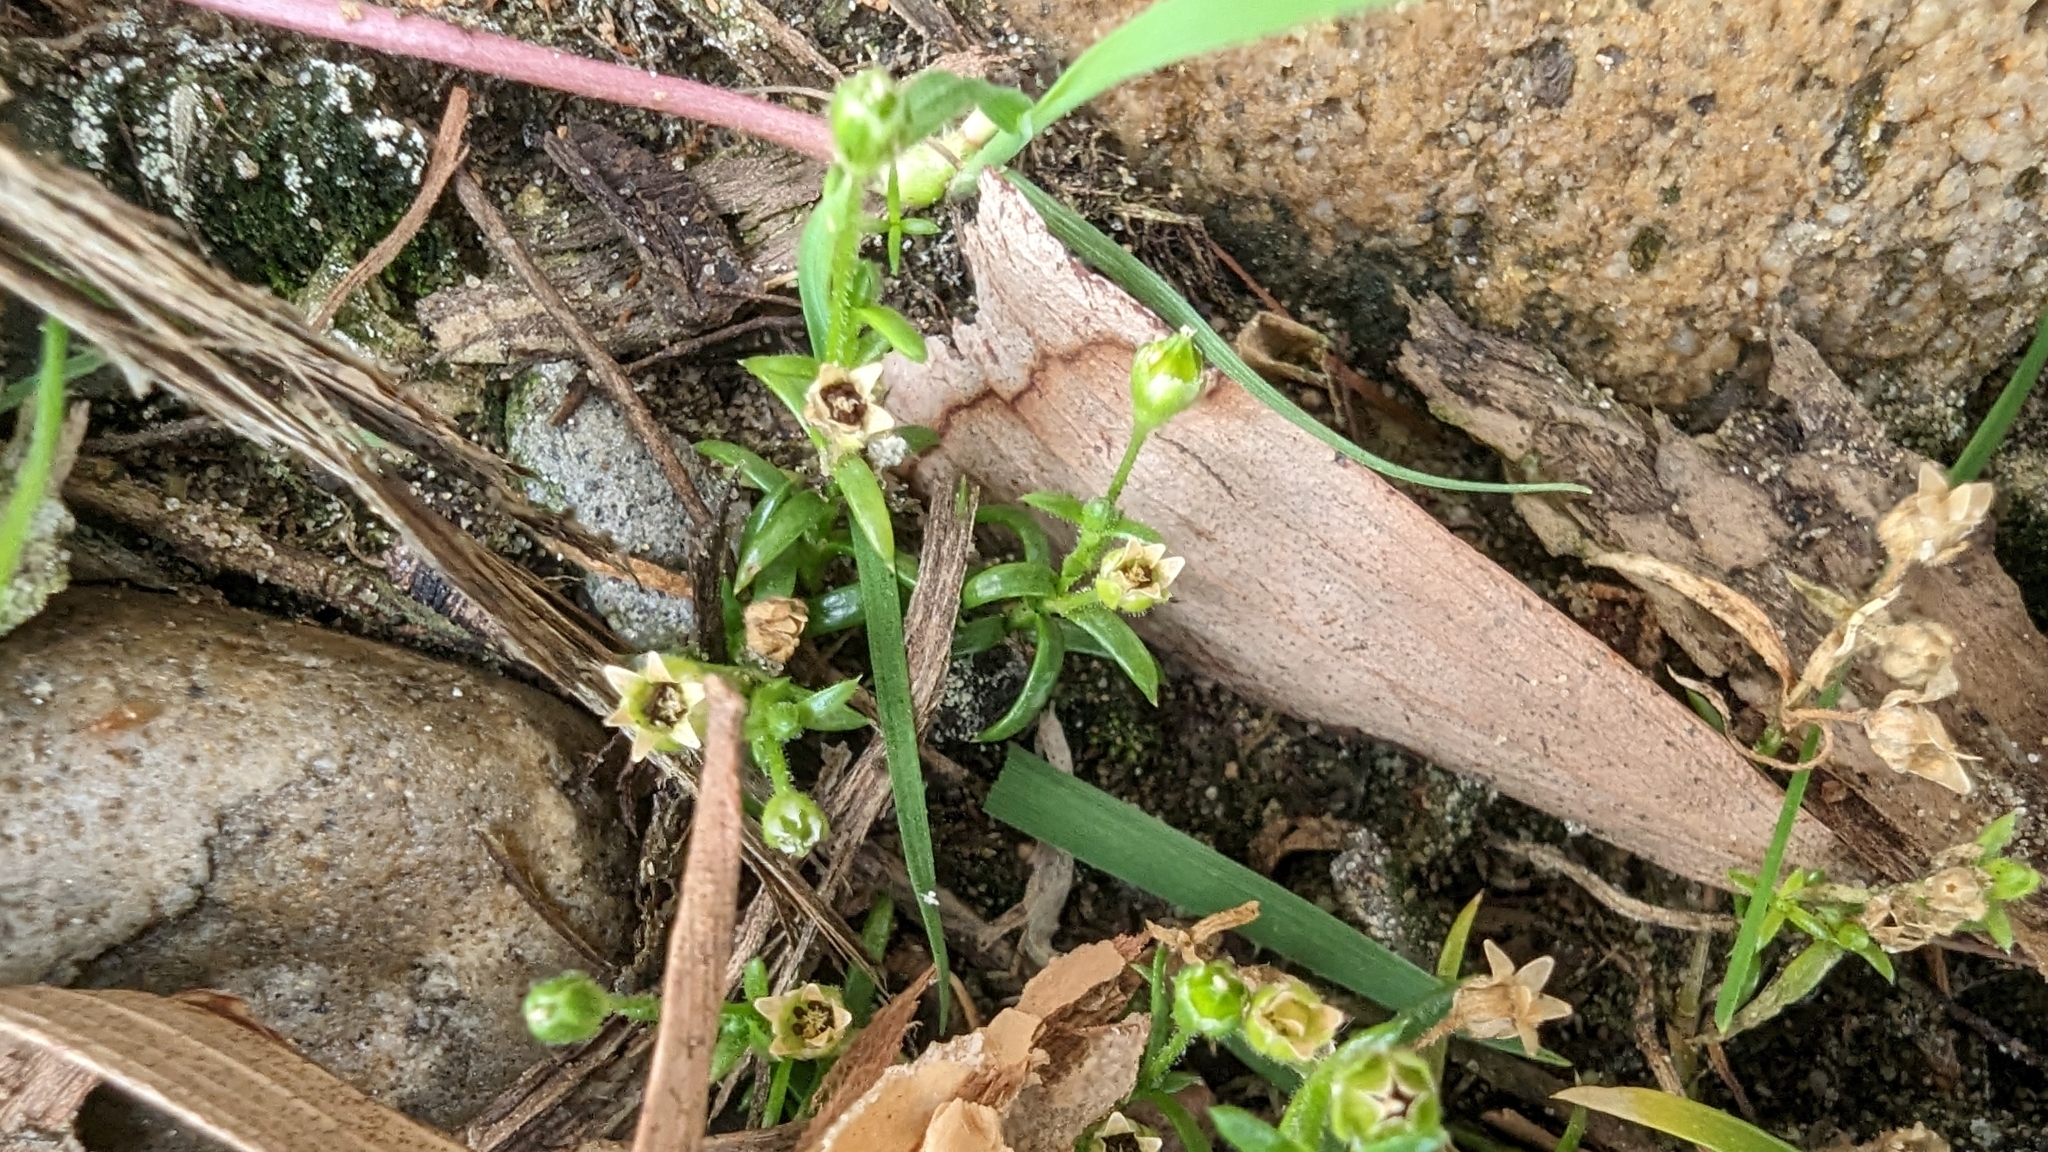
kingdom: Plantae
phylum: Tracheophyta
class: Magnoliopsida
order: Caryophyllales
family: Caryophyllaceae
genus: Sagina
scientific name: Sagina maxima
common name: Coastal pearlwort
